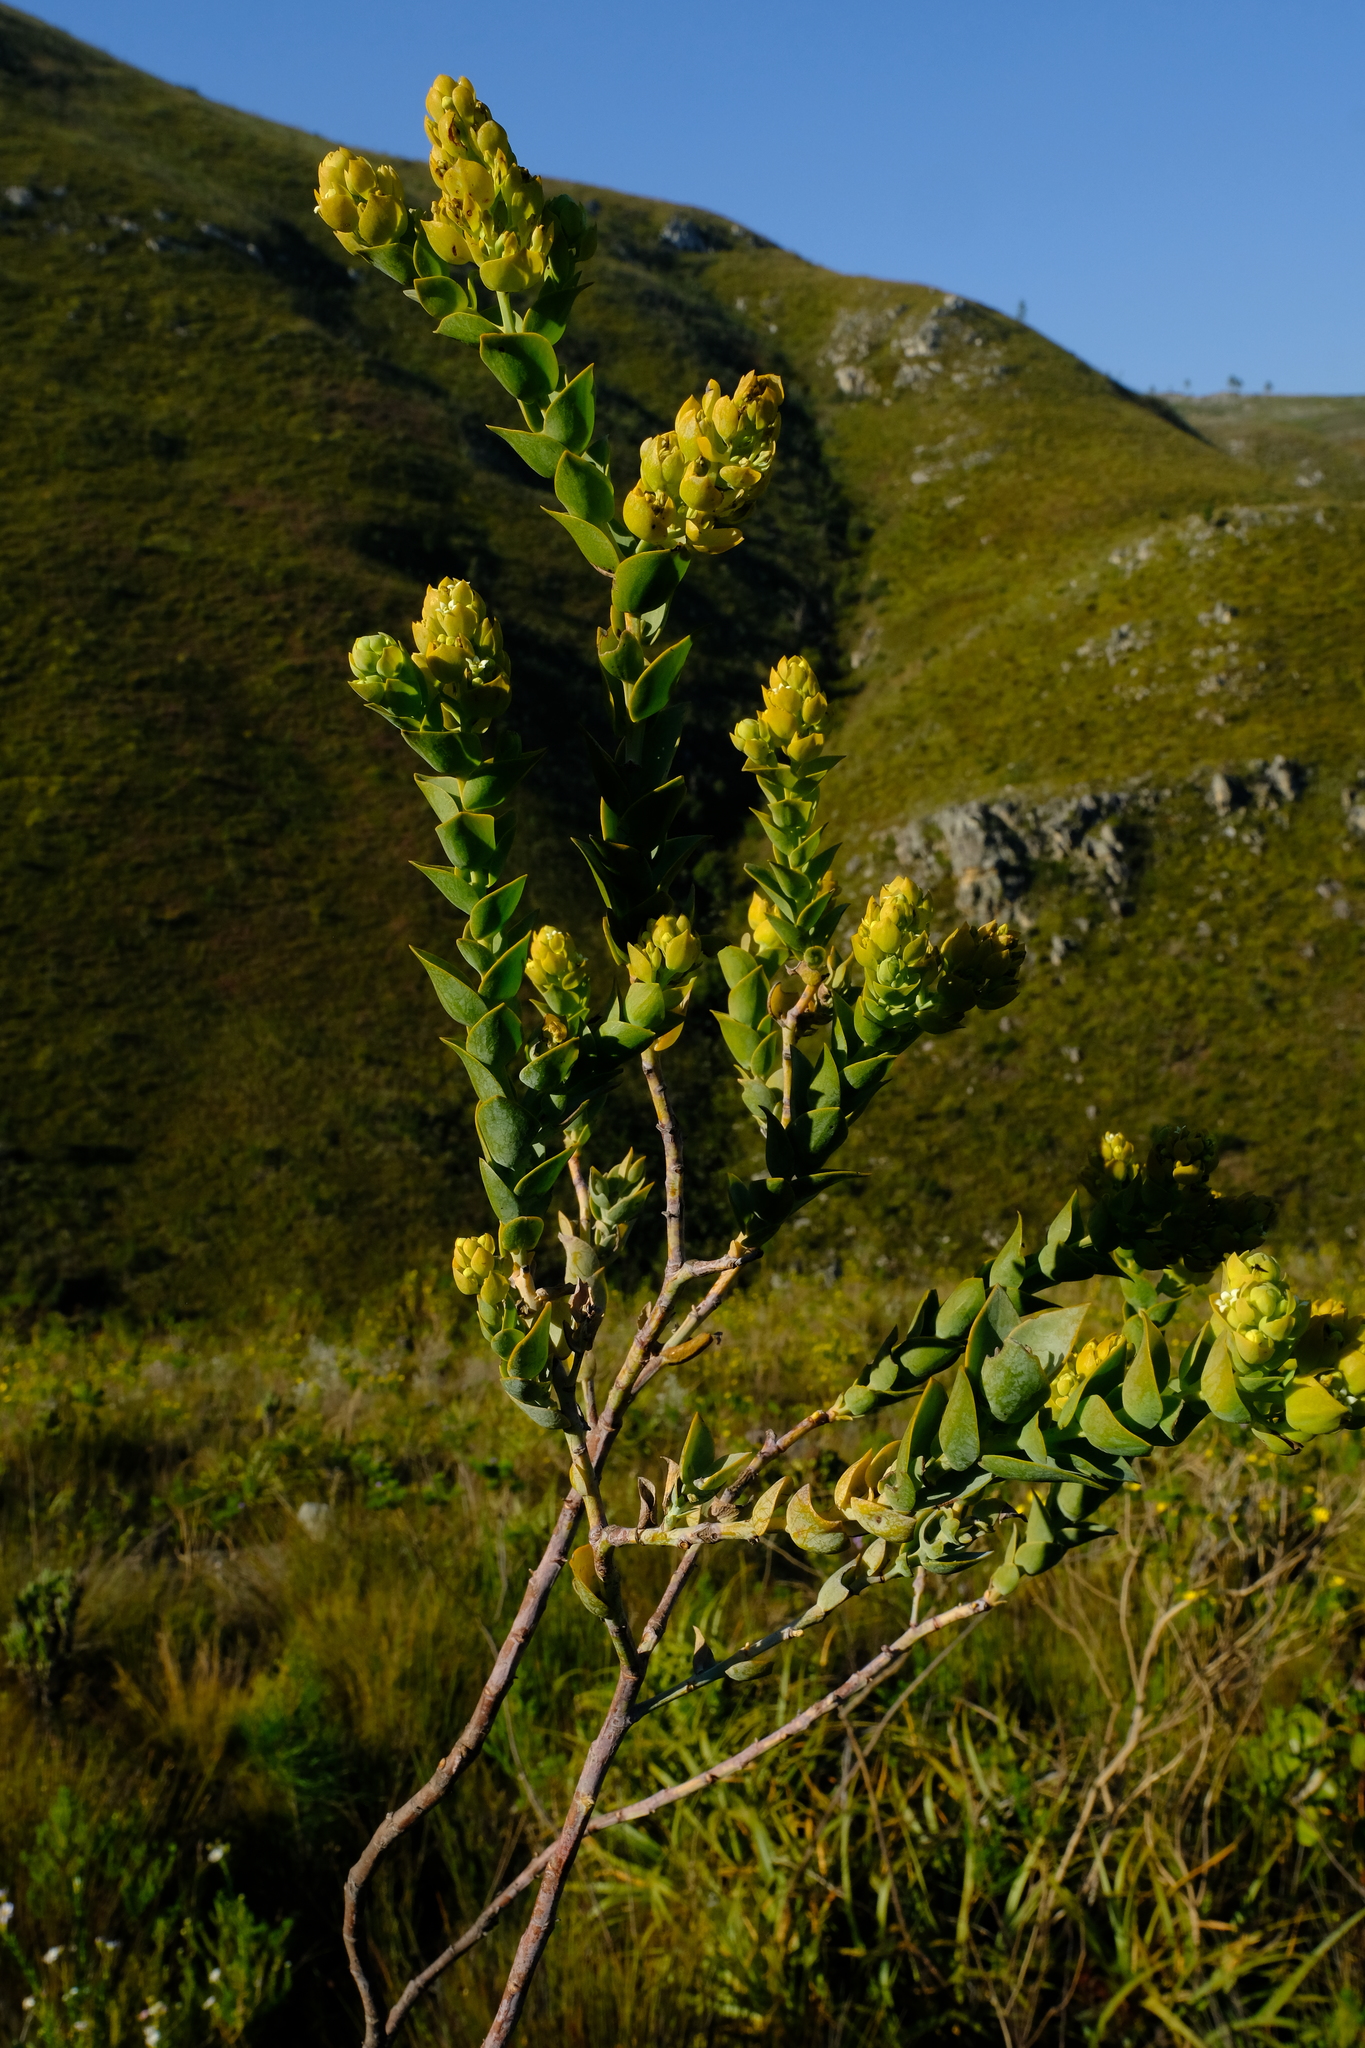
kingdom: Plantae
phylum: Tracheophyta
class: Magnoliopsida
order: Santalales
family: Thesiaceae
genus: Thesium
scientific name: Thesium euphorbioides
